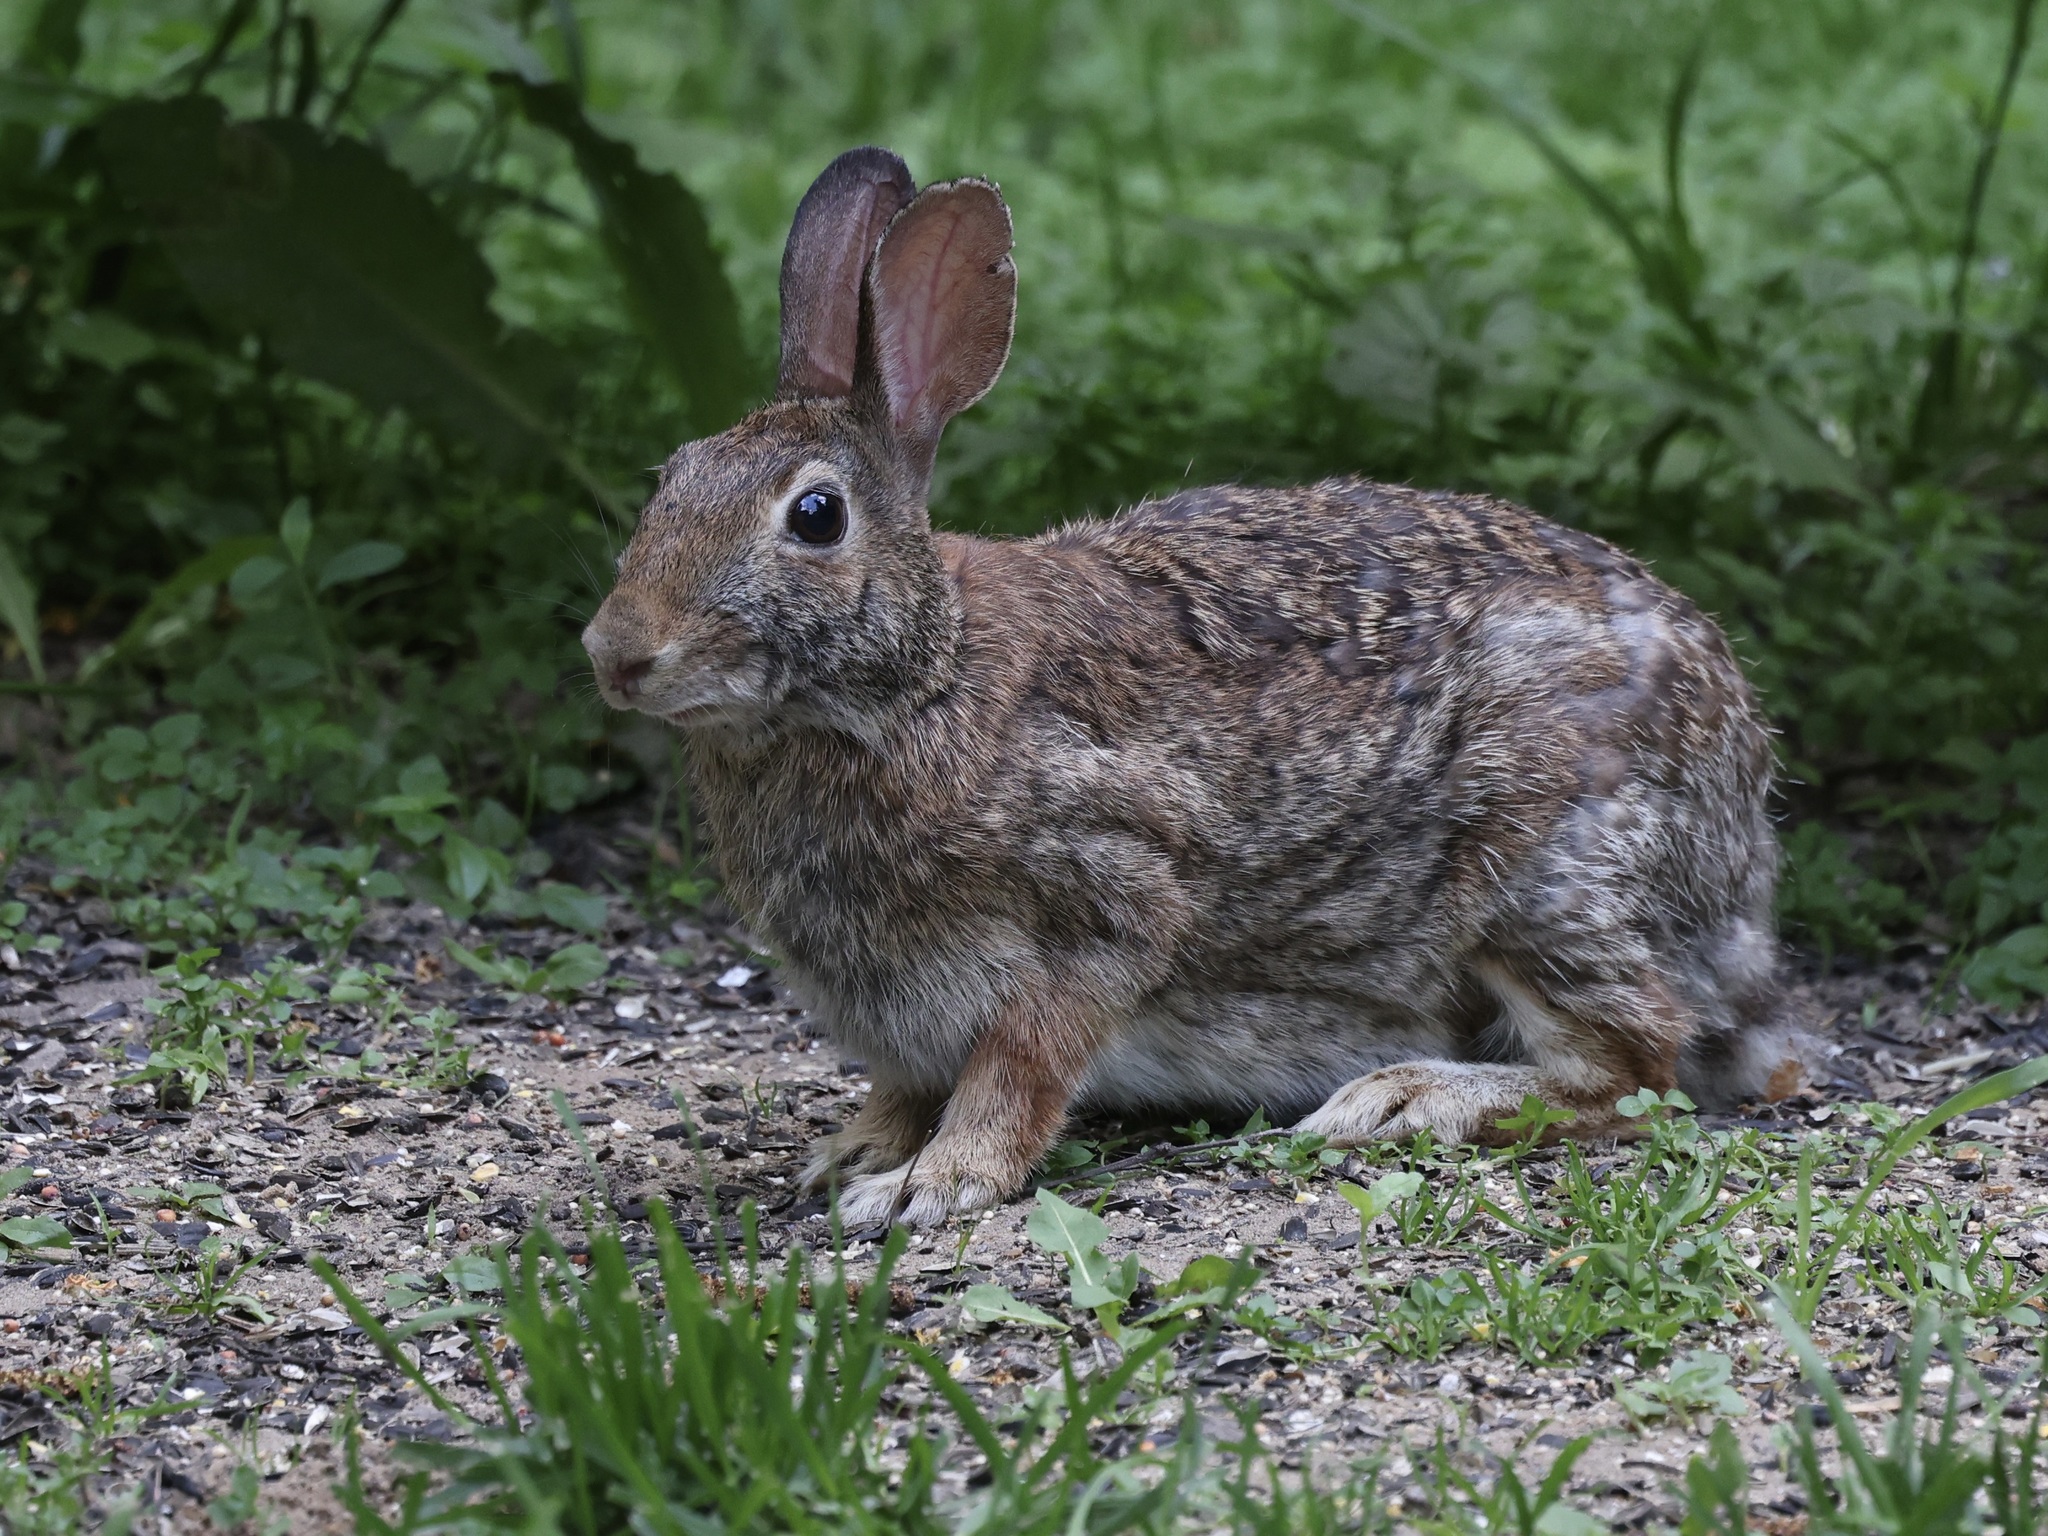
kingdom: Animalia
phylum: Chordata
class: Mammalia
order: Lagomorpha
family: Leporidae
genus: Sylvilagus
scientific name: Sylvilagus floridanus
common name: Eastern cottontail
